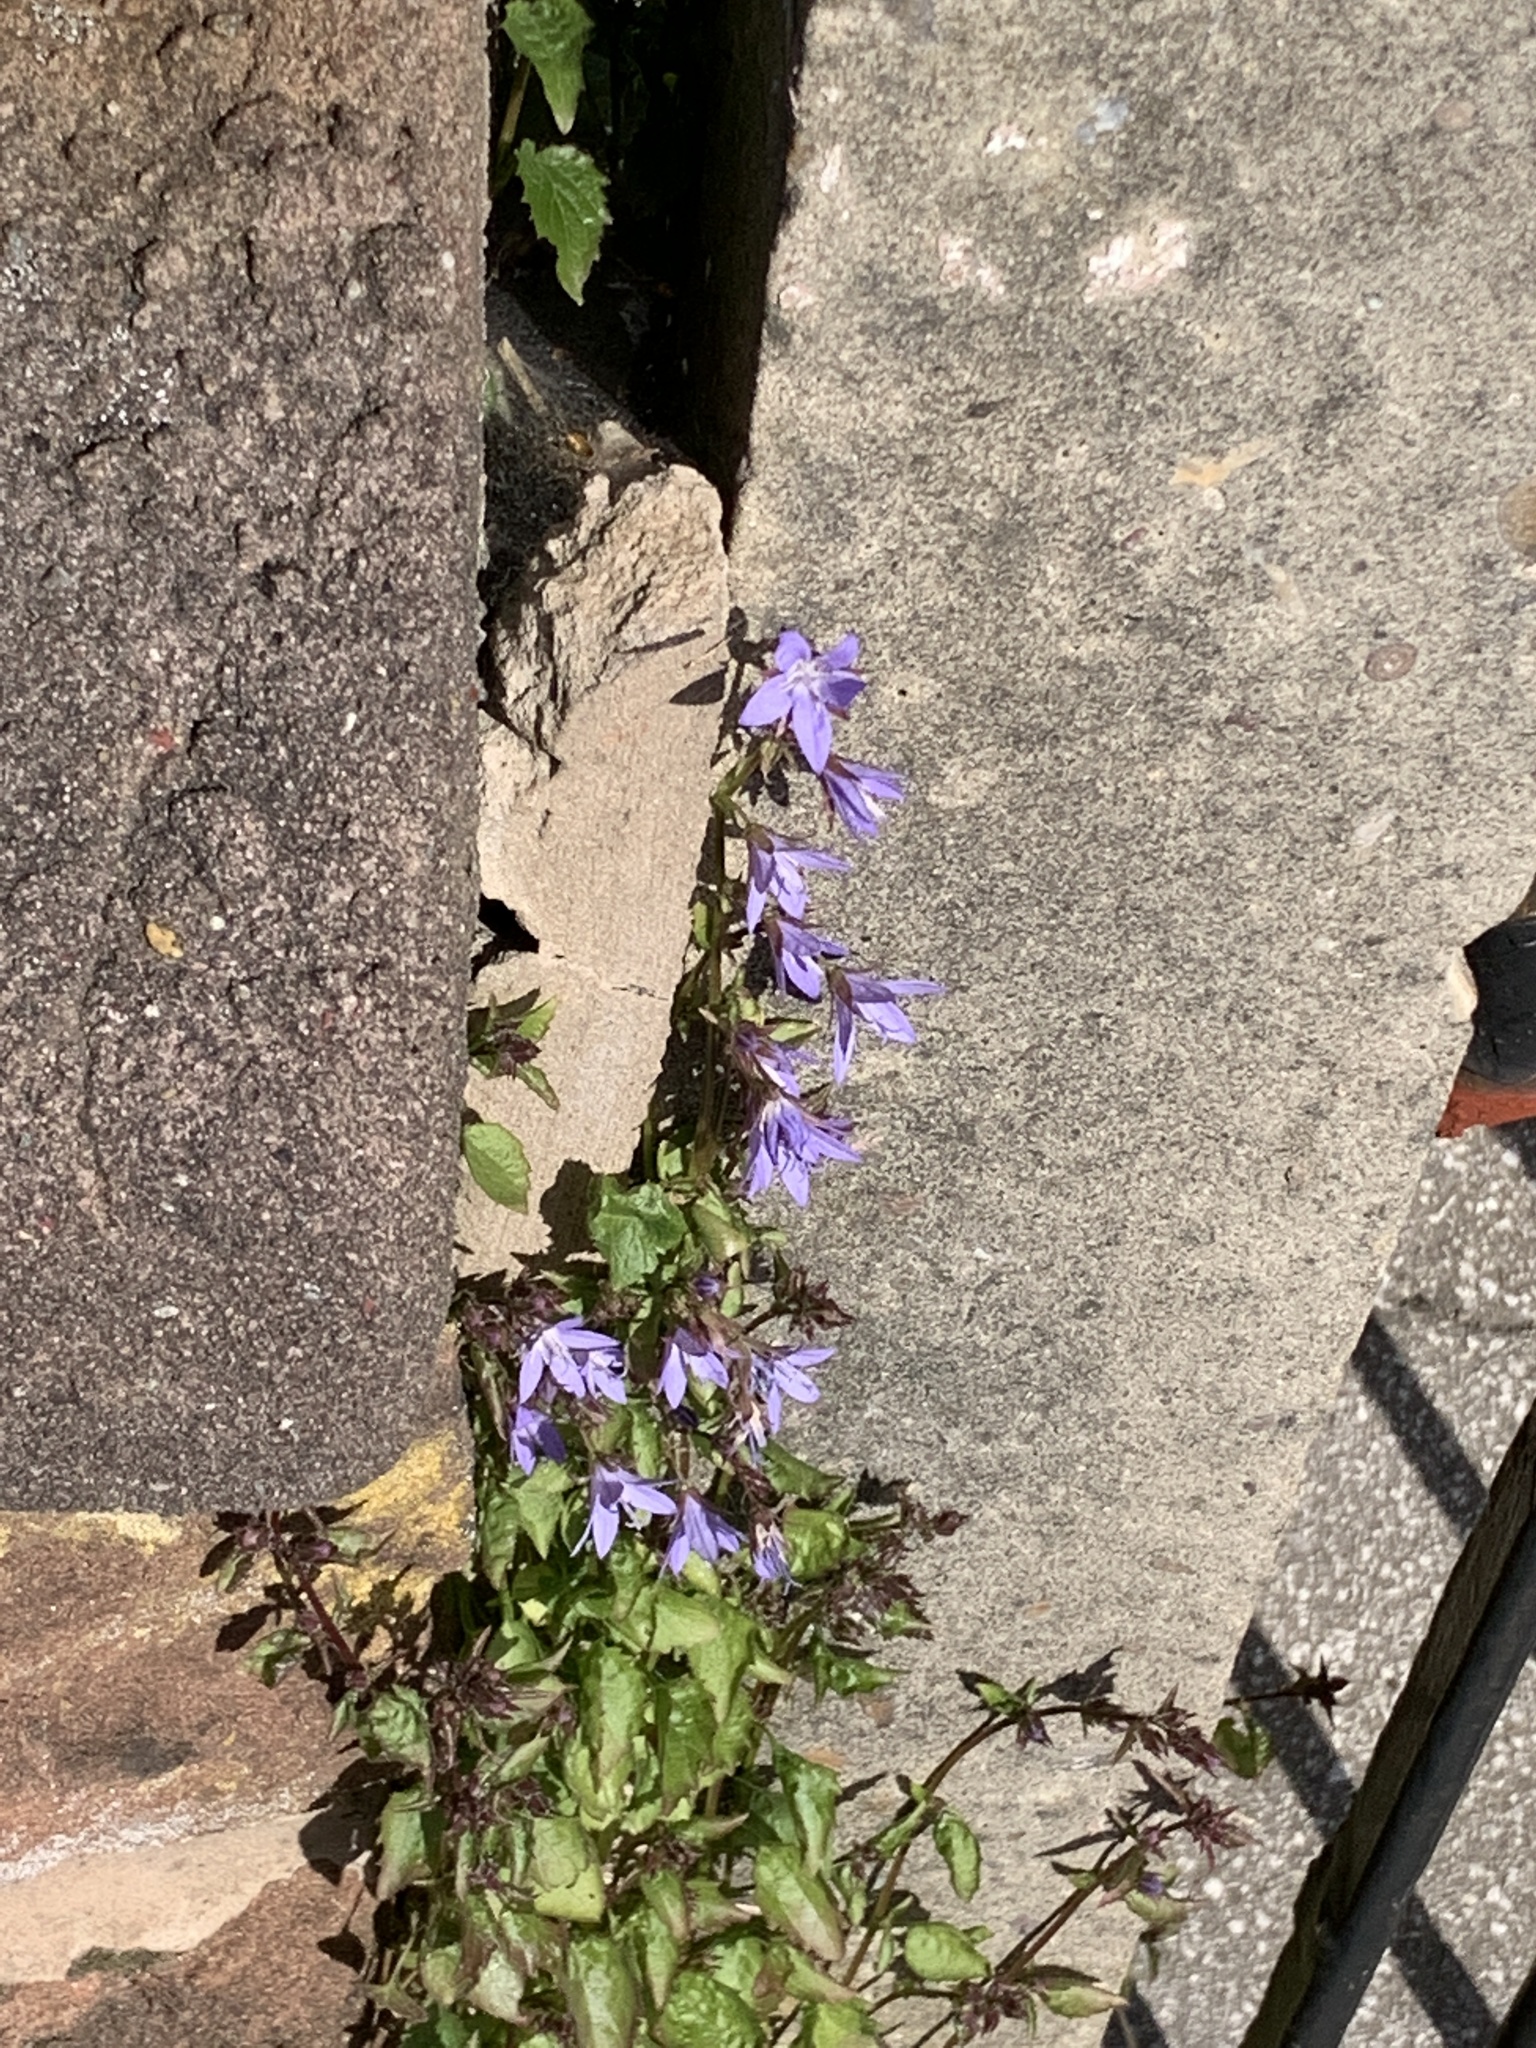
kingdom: Plantae
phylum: Tracheophyta
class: Magnoliopsida
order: Asterales
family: Campanulaceae
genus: Campanula
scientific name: Campanula poscharskyana
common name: Trailing bellflower
